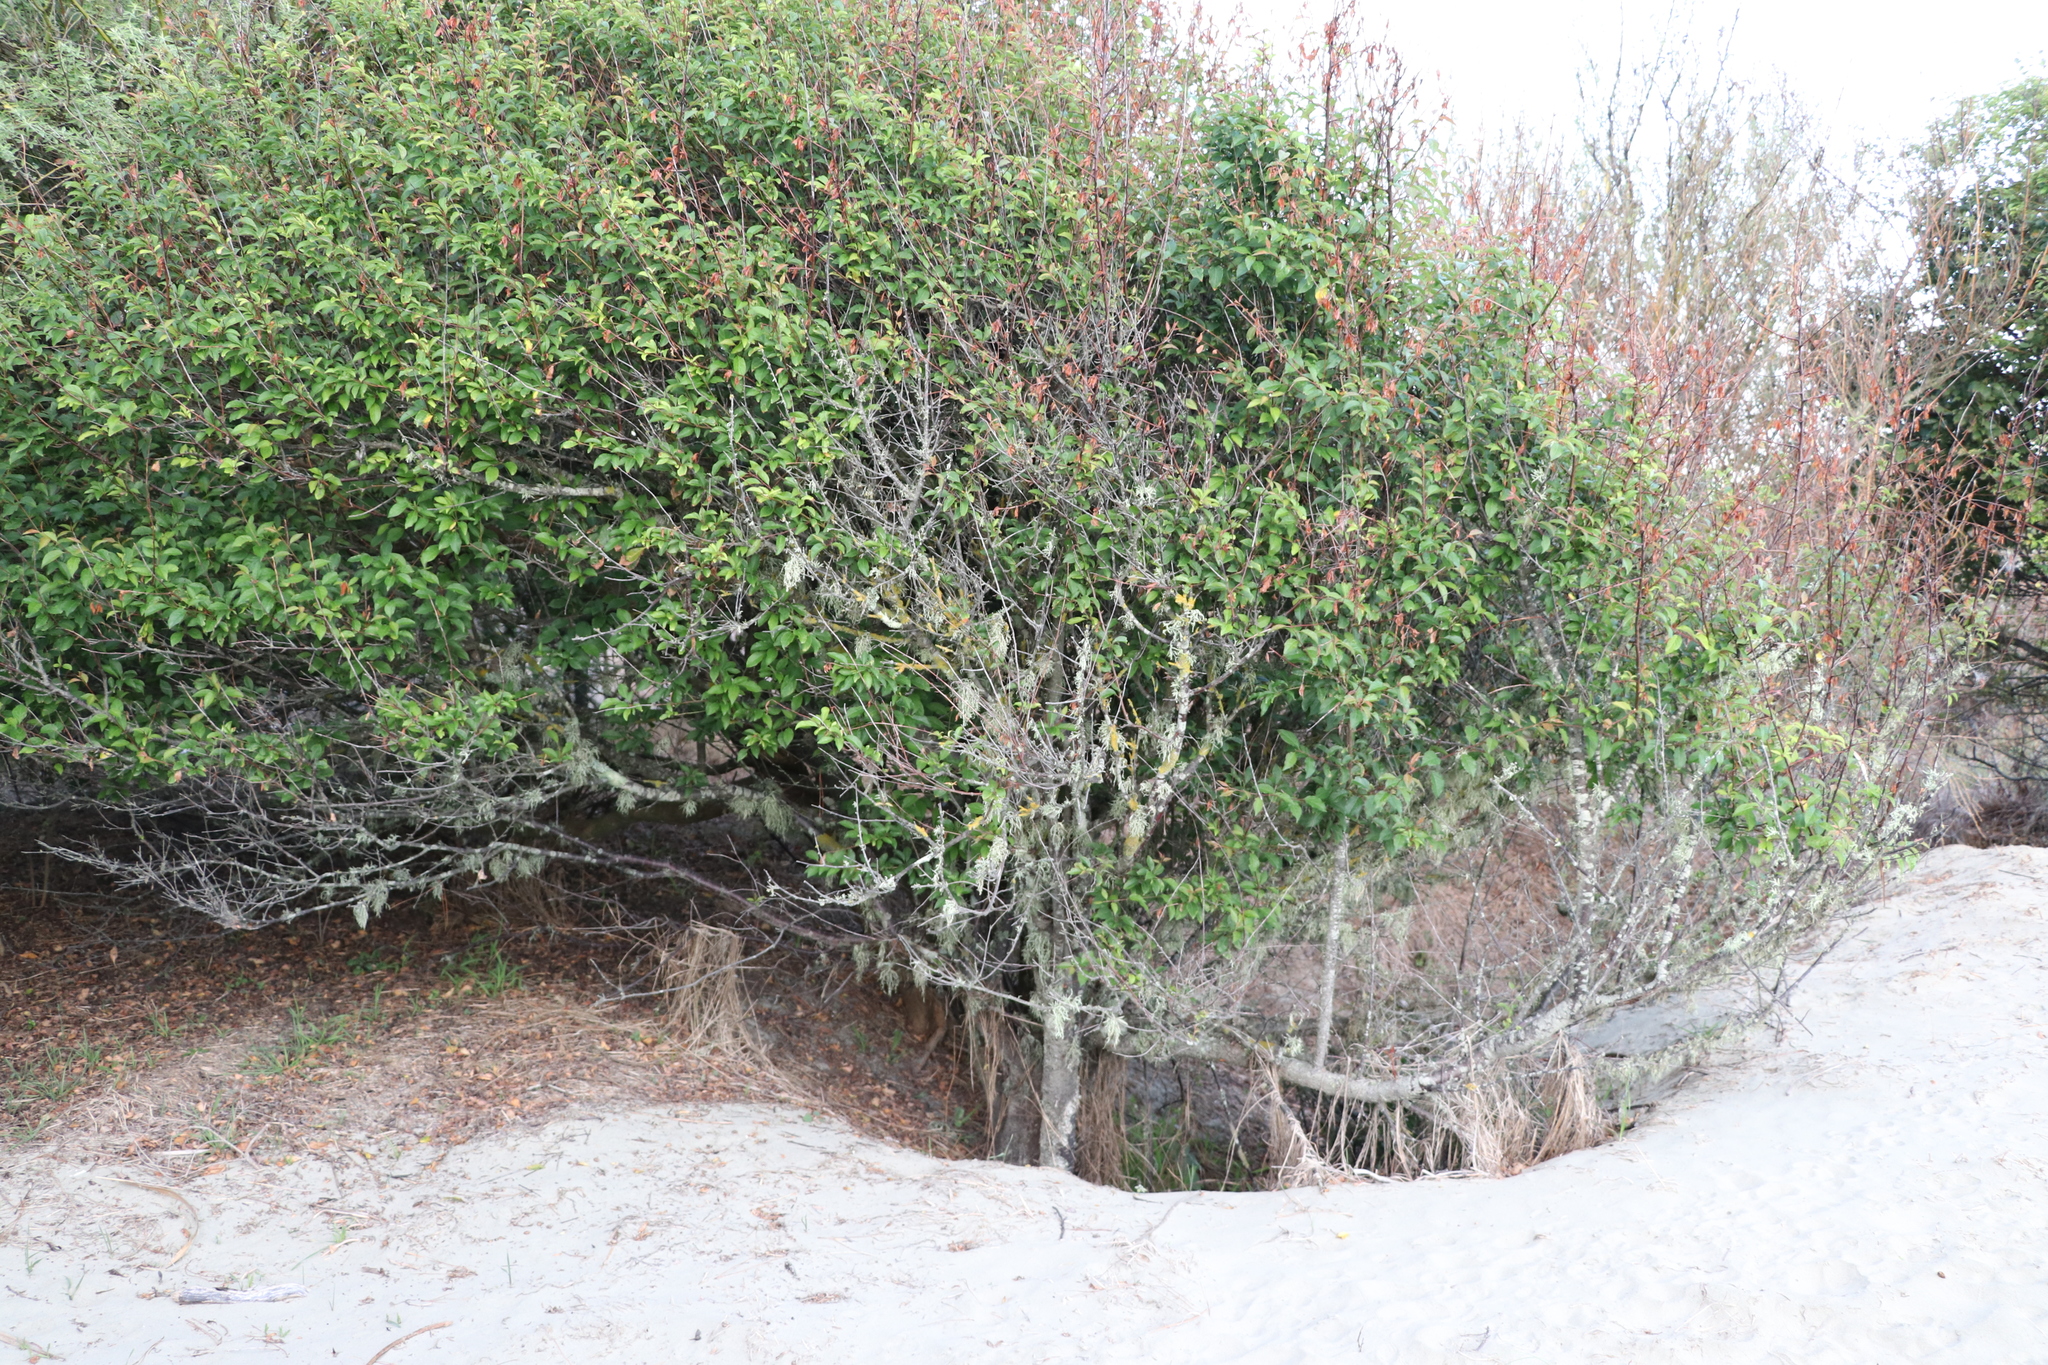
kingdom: Plantae
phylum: Tracheophyta
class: Magnoliopsida
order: Rosales
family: Rosaceae
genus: Prunus
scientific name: Prunus domestica
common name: Wild plum
